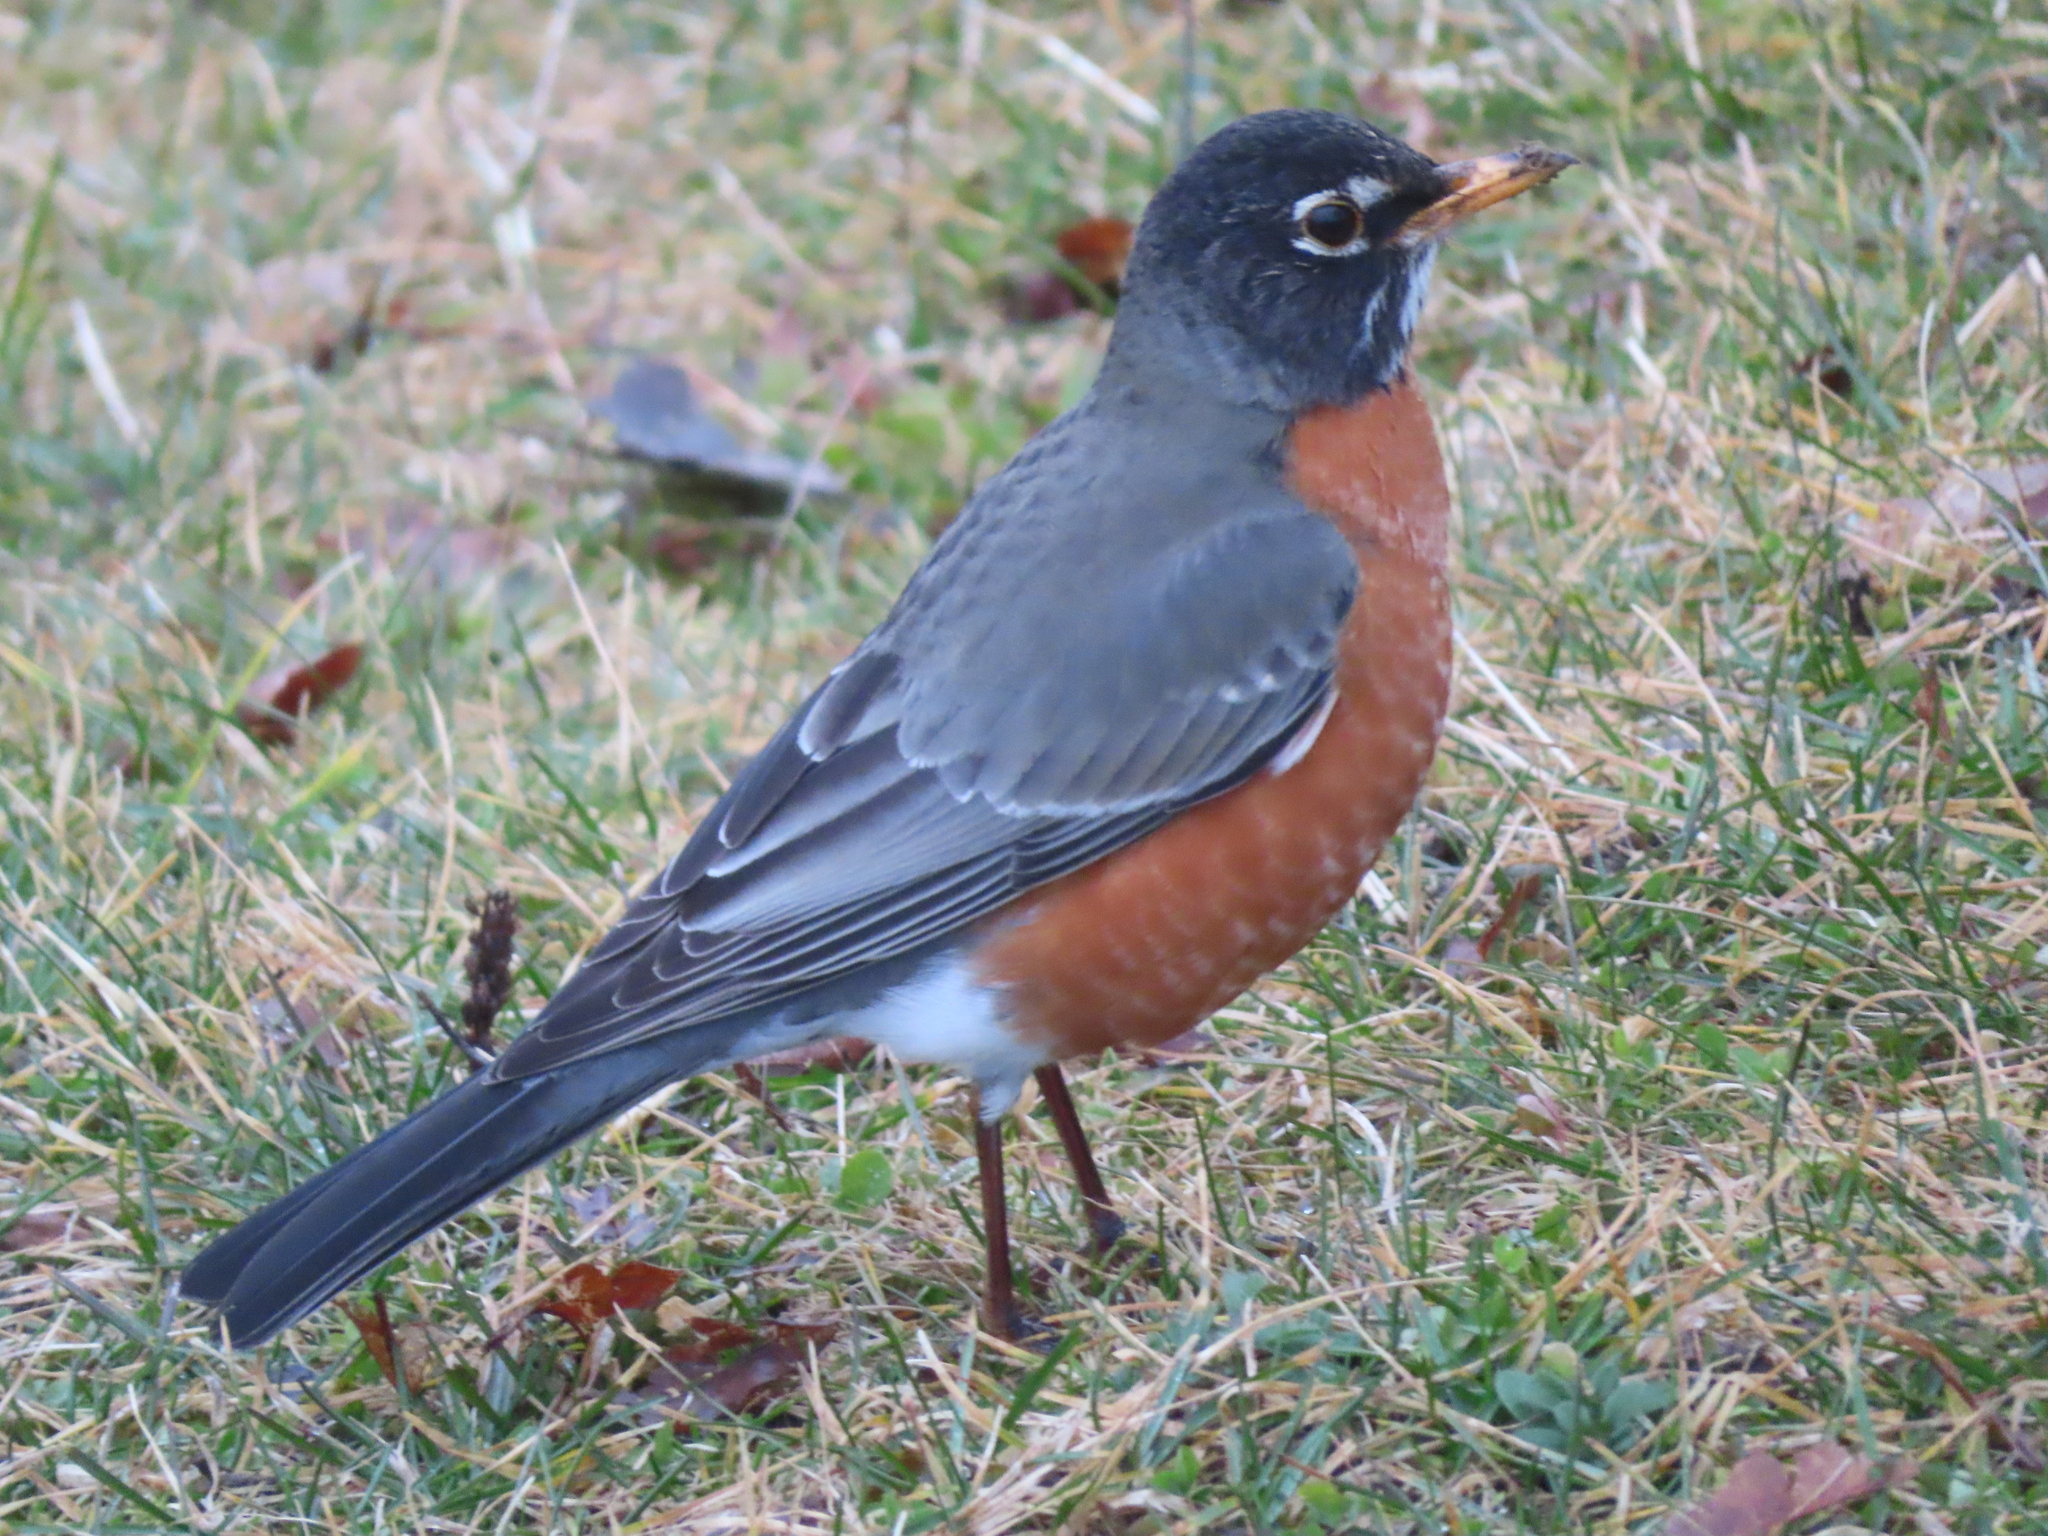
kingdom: Animalia
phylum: Chordata
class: Aves
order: Passeriformes
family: Turdidae
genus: Turdus
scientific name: Turdus migratorius
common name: American robin
